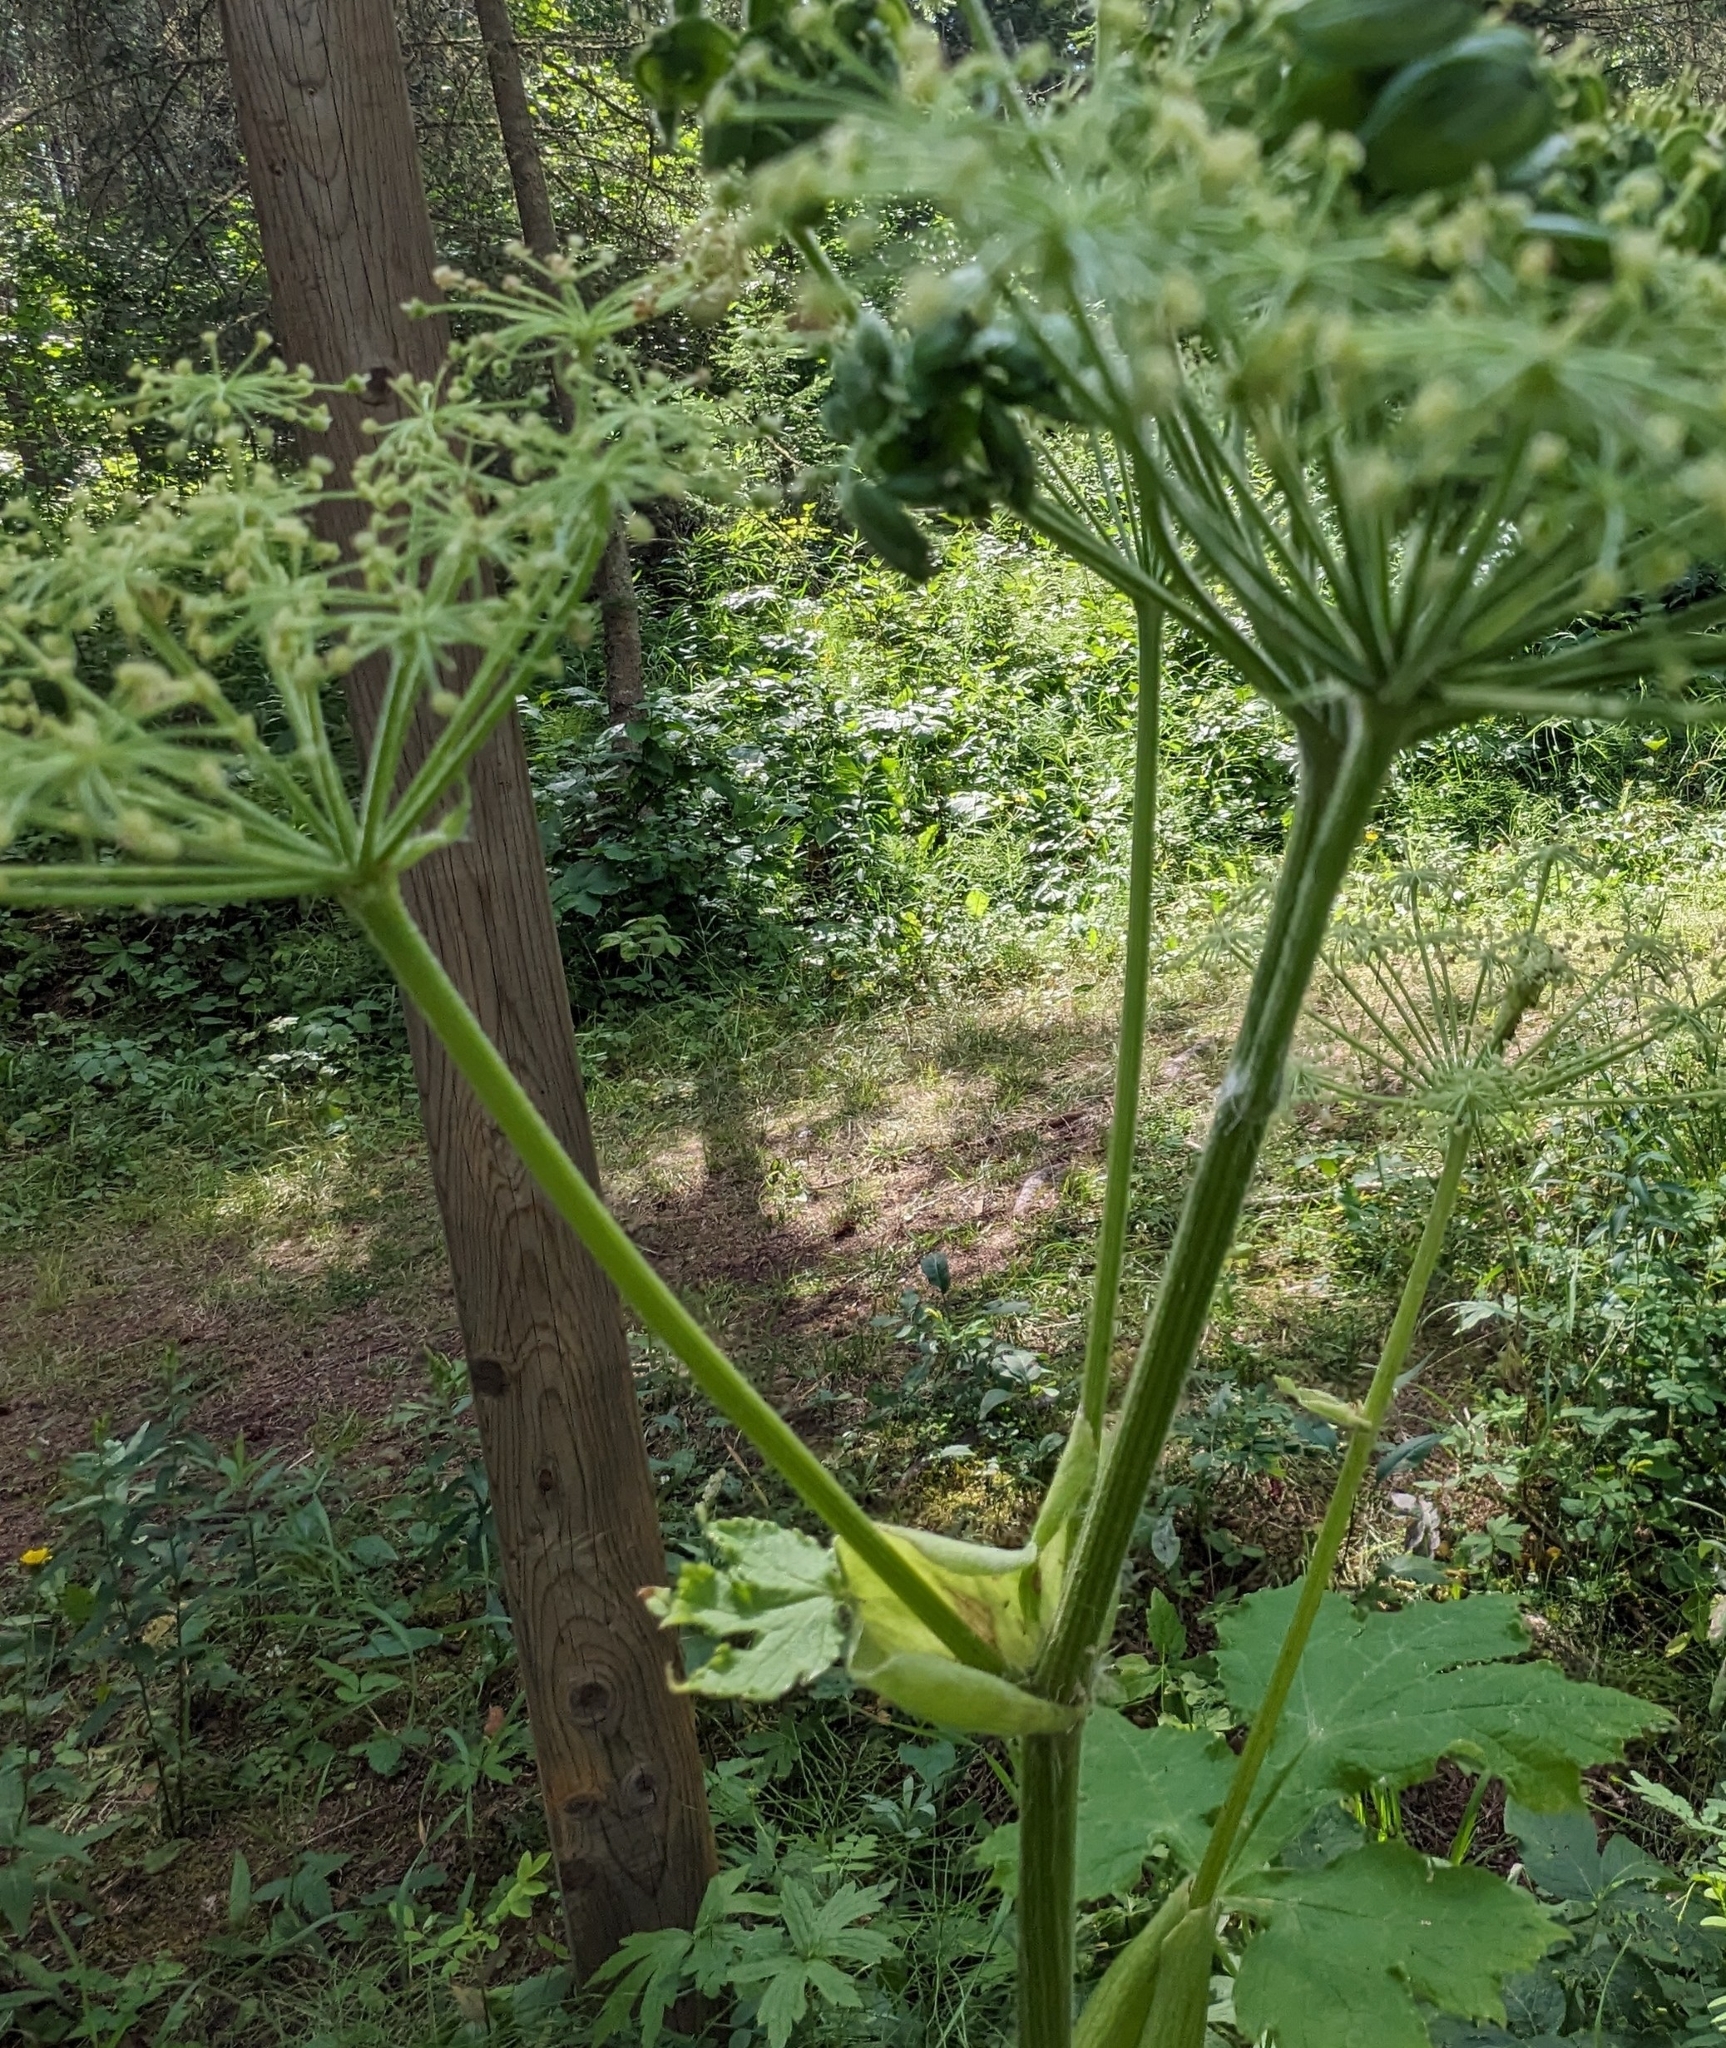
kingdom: Plantae
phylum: Tracheophyta
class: Magnoliopsida
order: Apiales
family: Apiaceae
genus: Heracleum
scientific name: Heracleum maximum
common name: American cow parsnip
